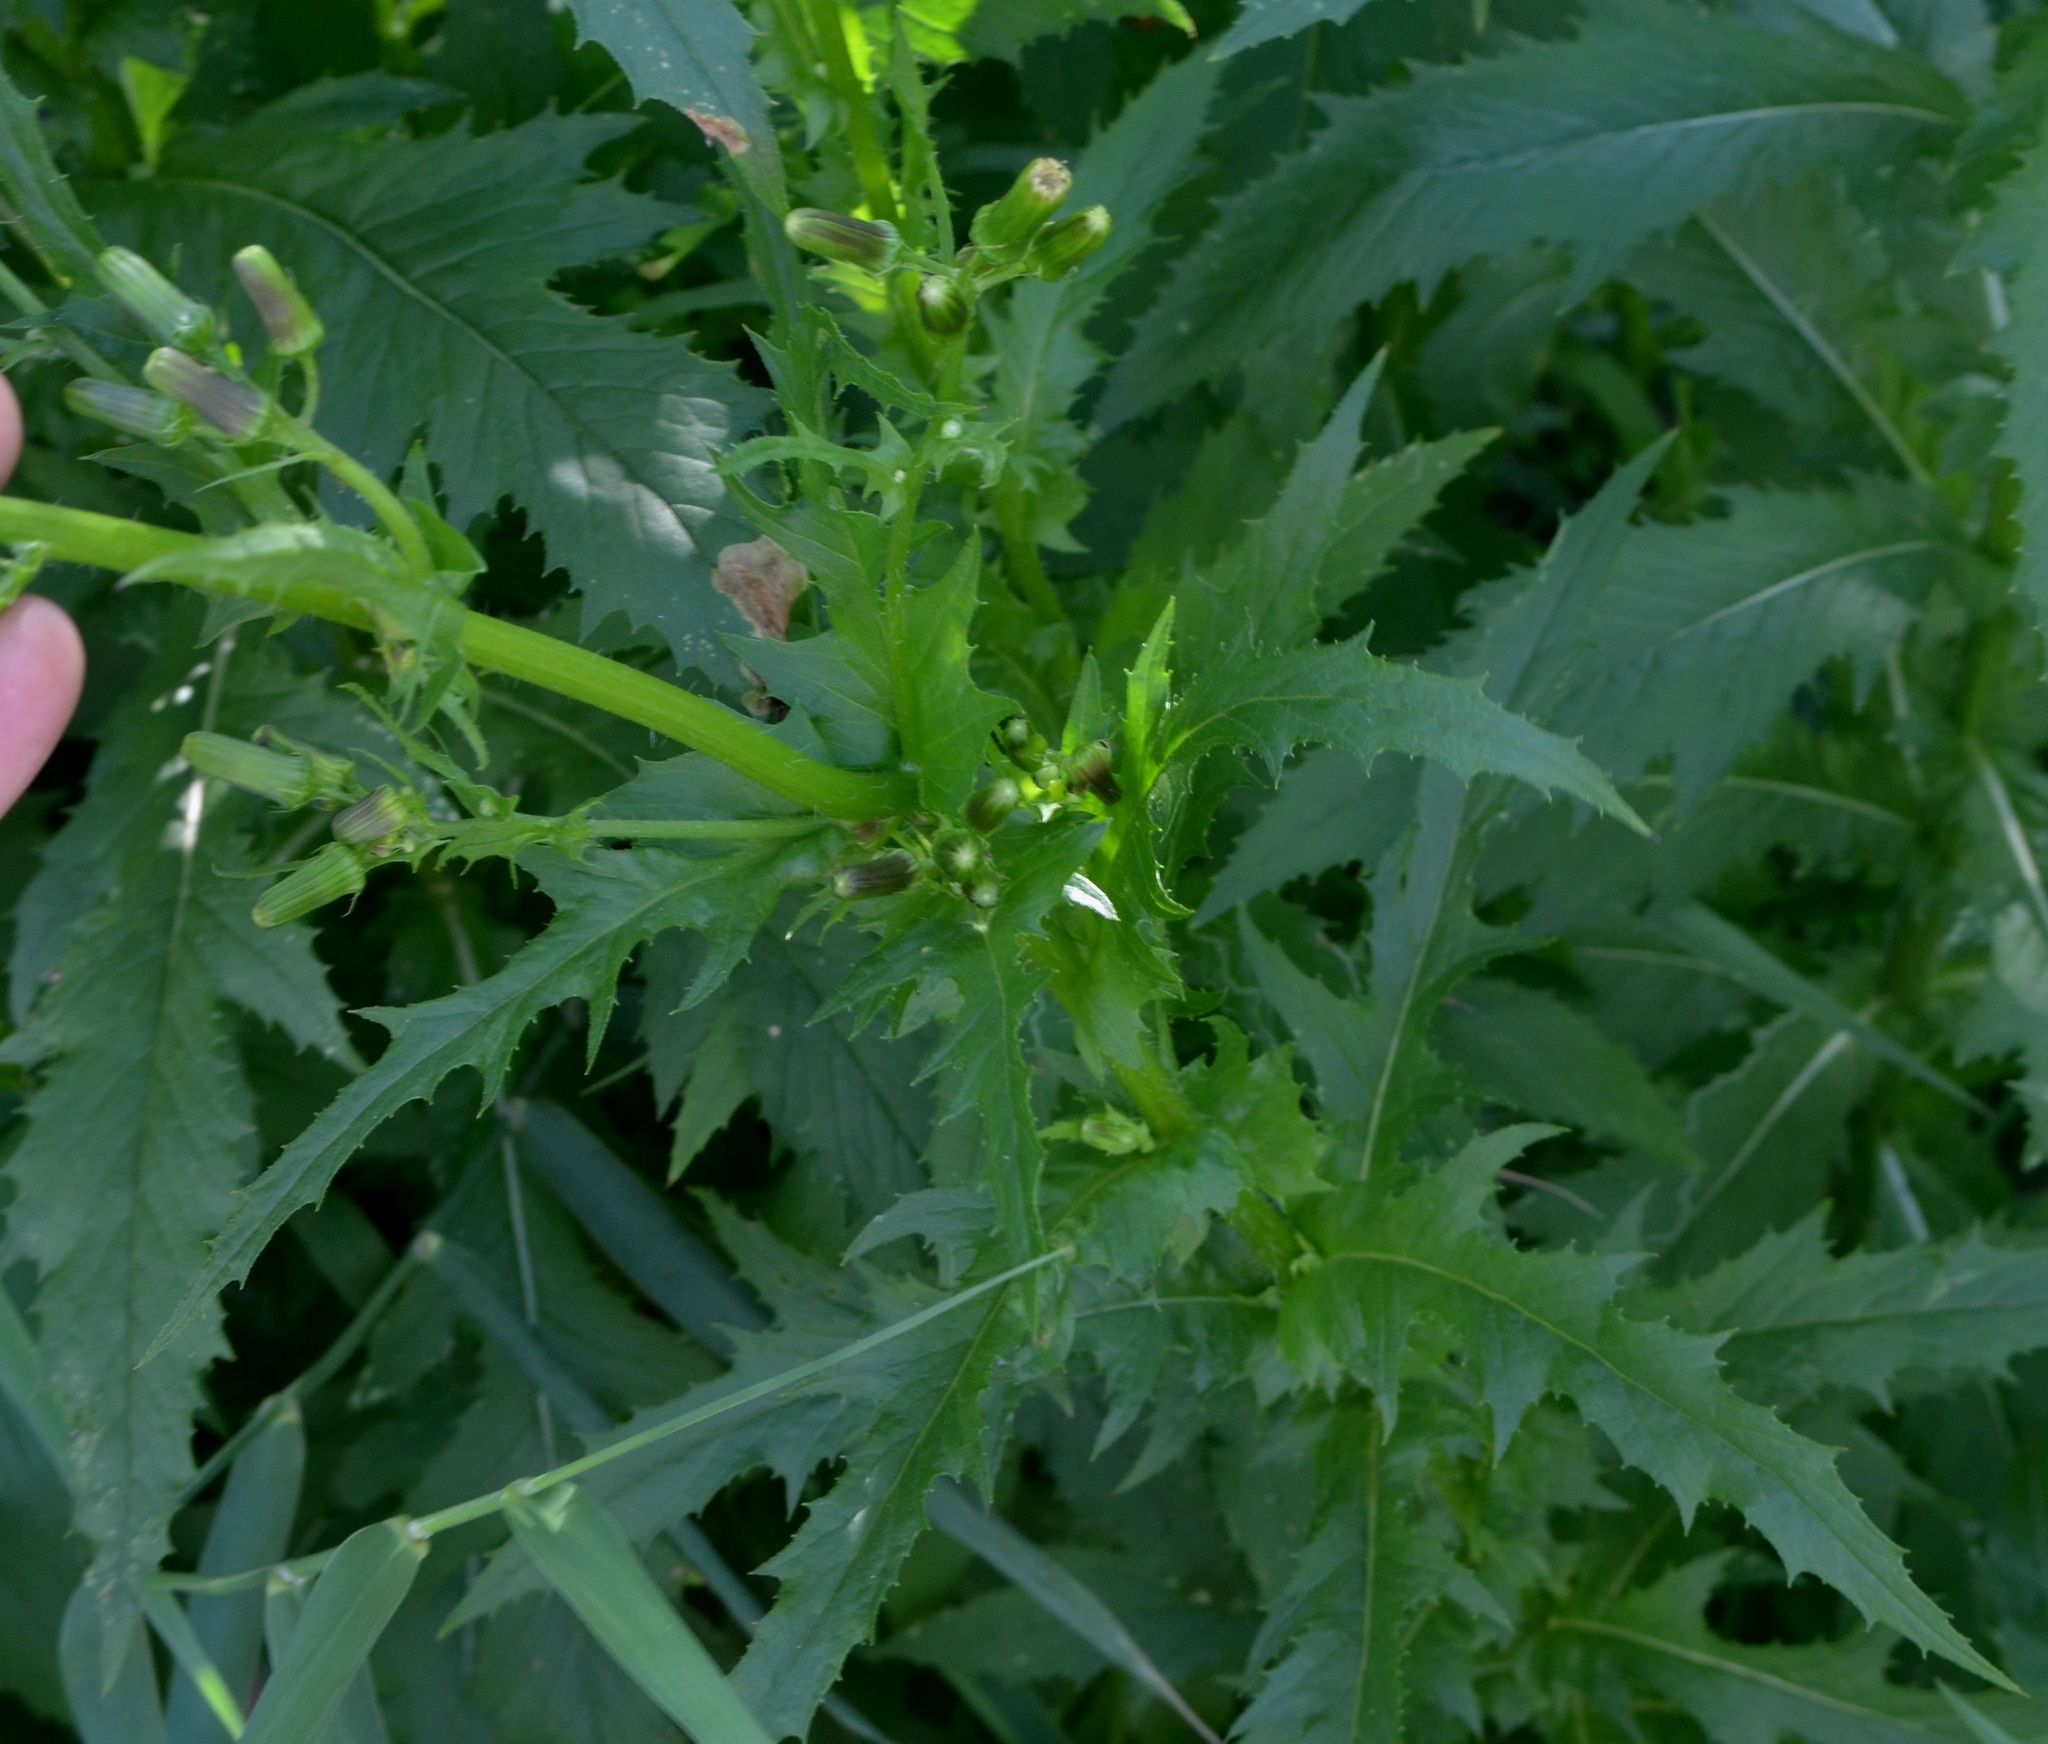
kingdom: Plantae
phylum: Tracheophyta
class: Magnoliopsida
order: Asterales
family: Asteraceae
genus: Erechtites
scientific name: Erechtites hieraciifolius
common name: American burnweed
